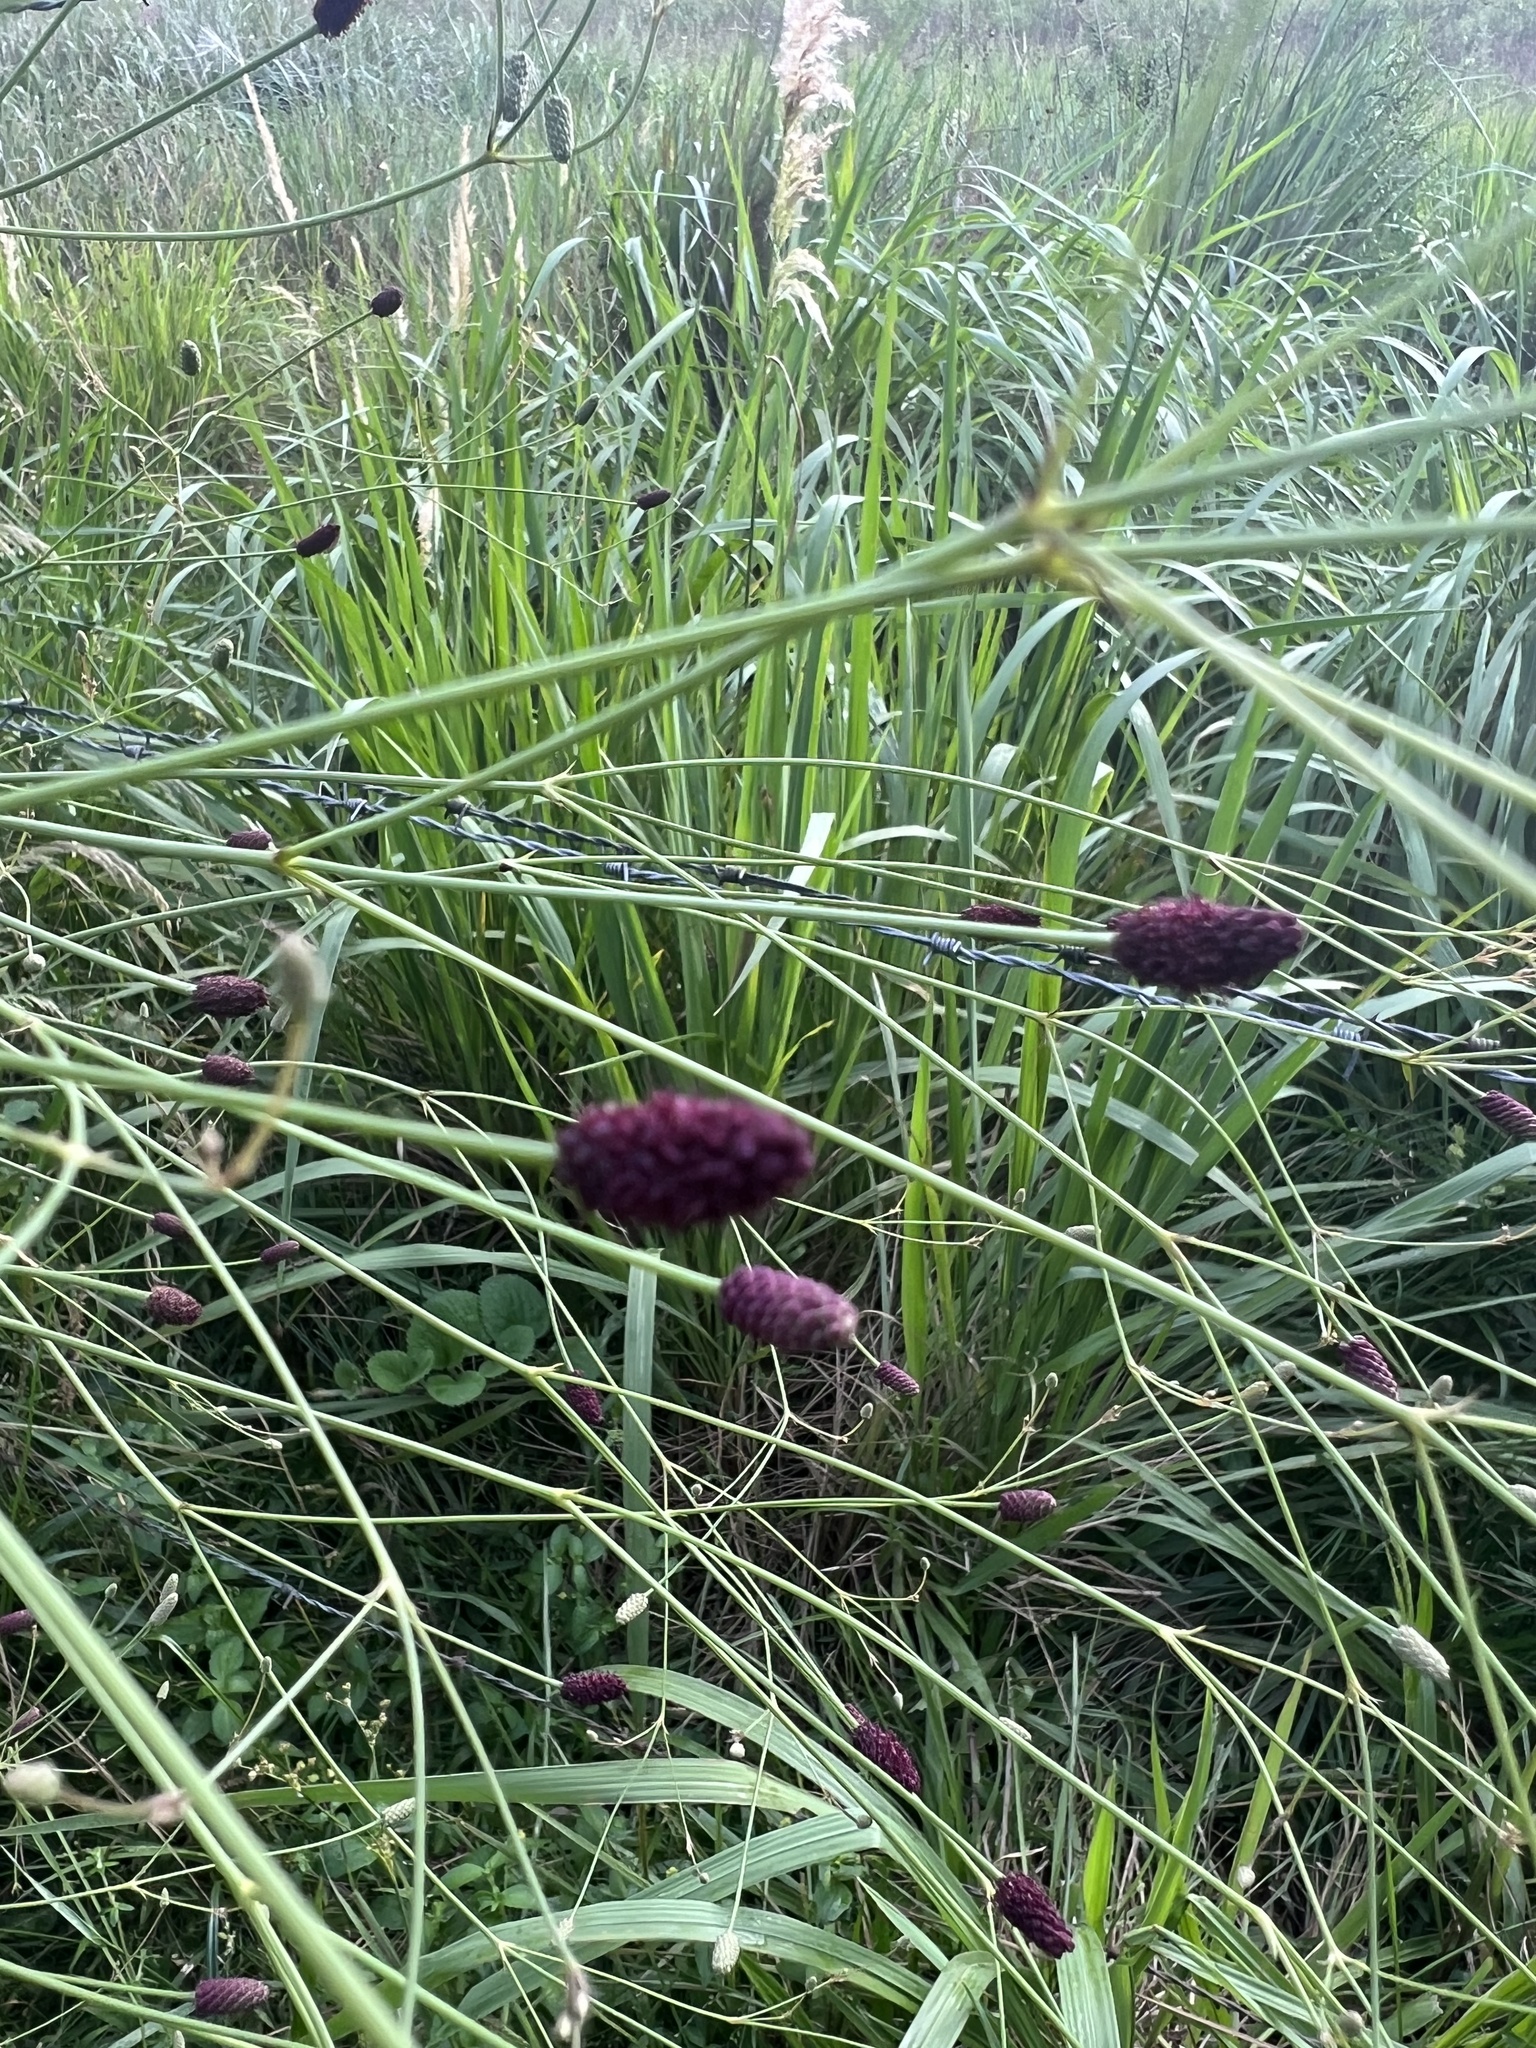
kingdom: Plantae
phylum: Tracheophyta
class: Magnoliopsida
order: Apiales
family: Apiaceae
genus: Eryngium
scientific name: Eryngium ebracteatum
